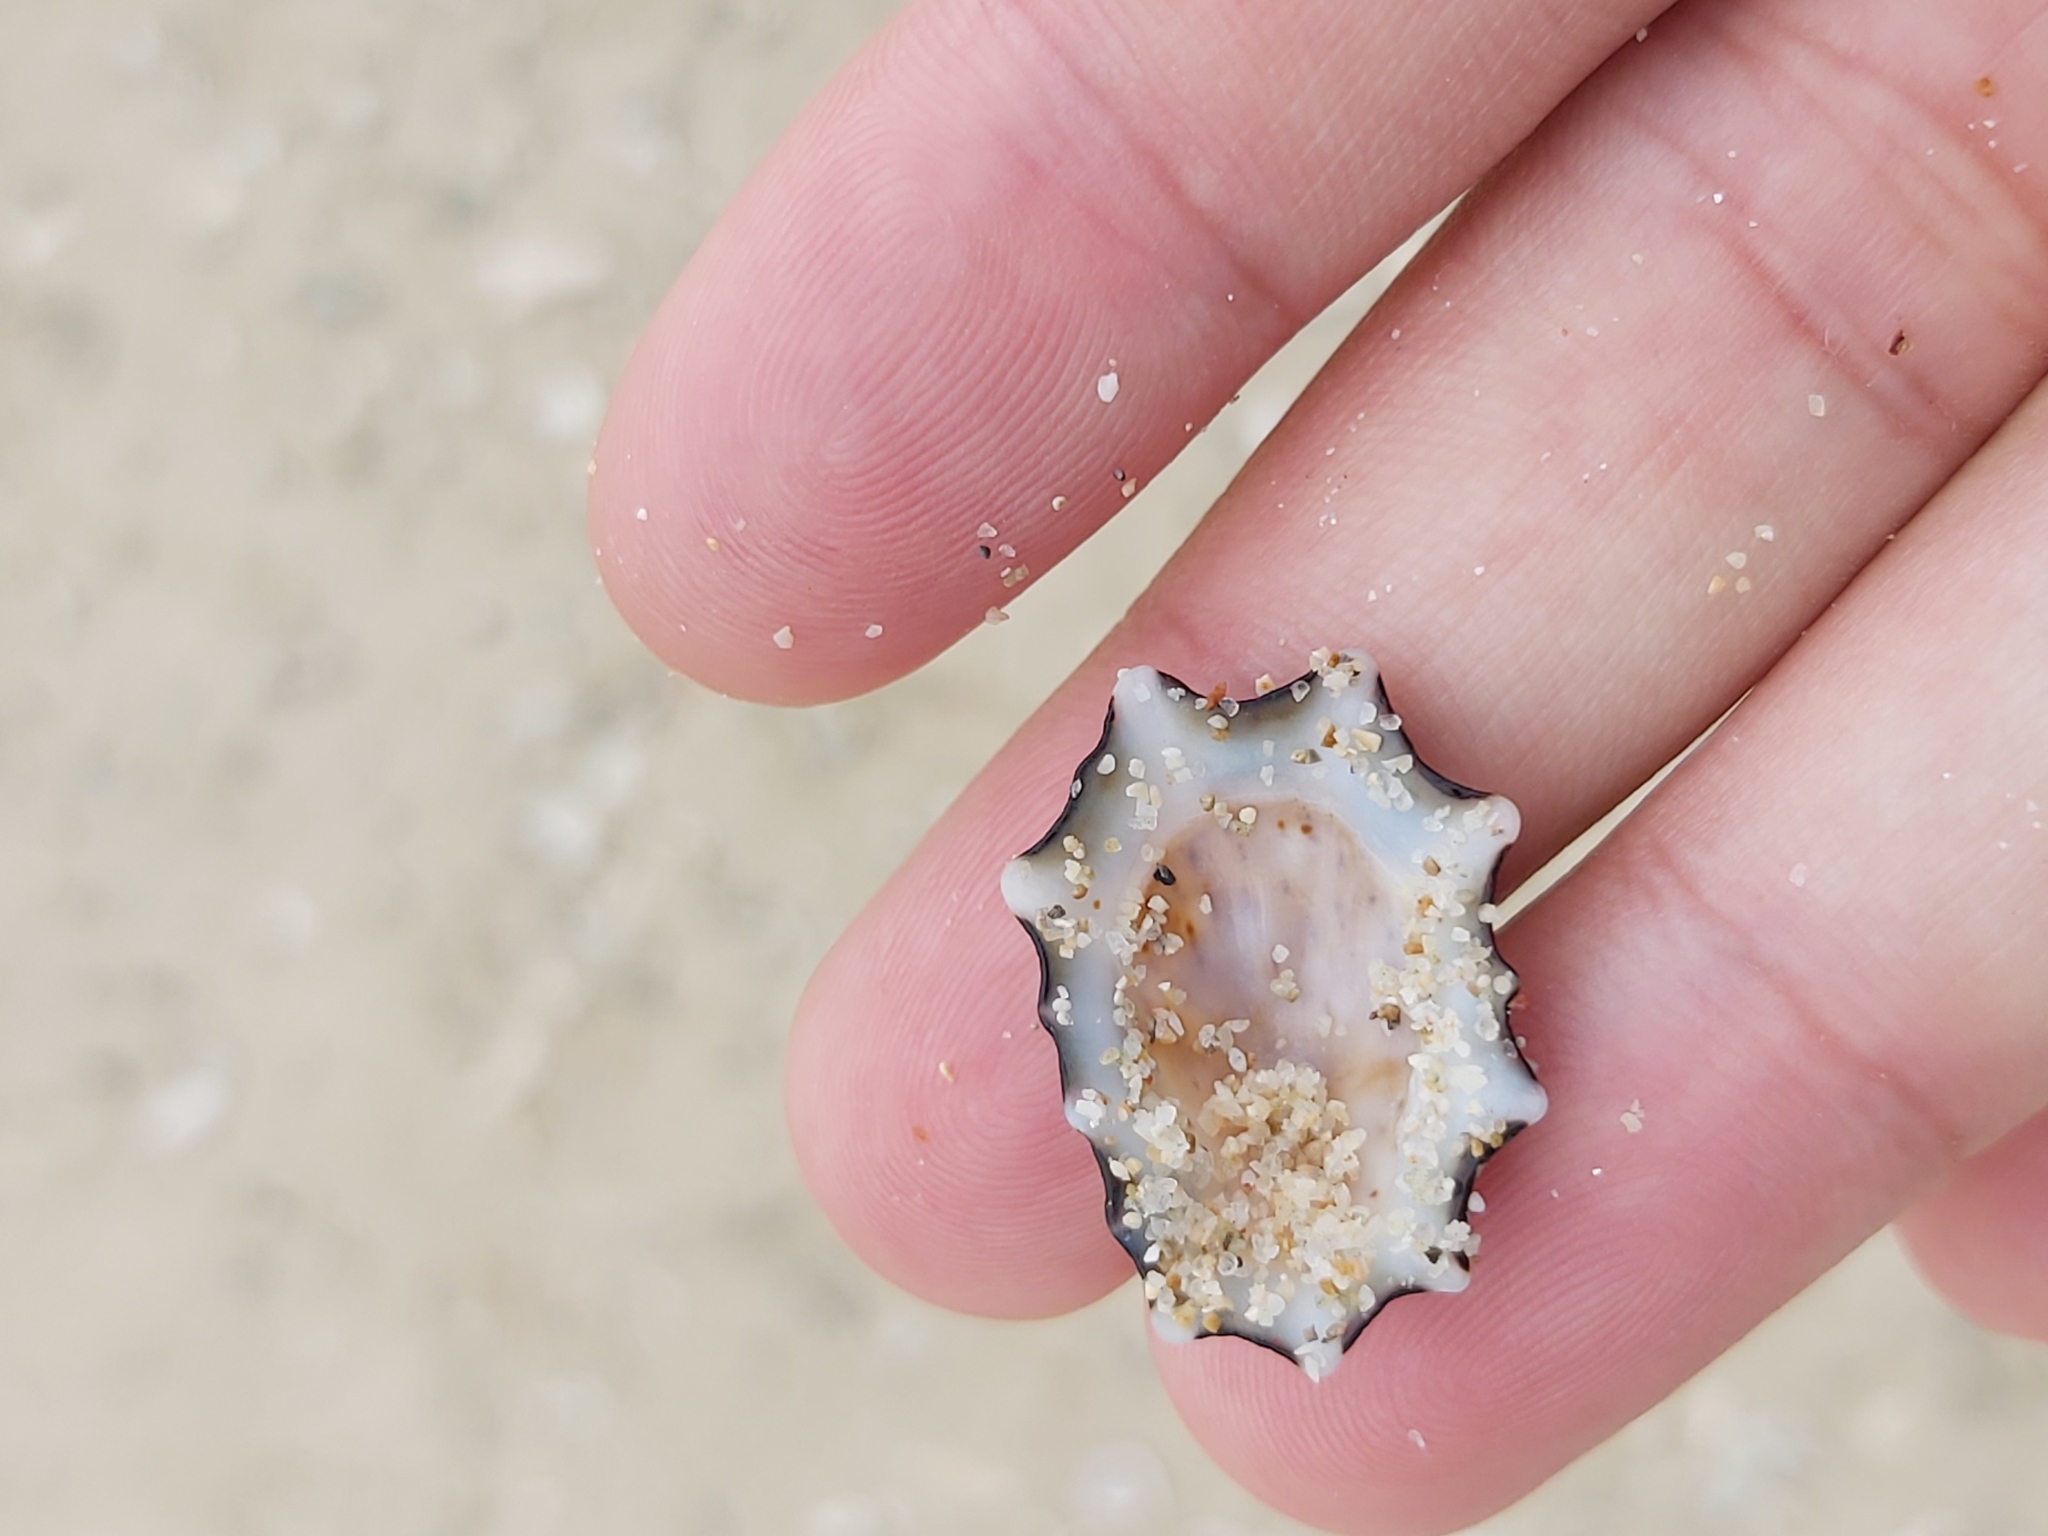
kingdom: Animalia
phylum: Mollusca
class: Gastropoda
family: Lottiidae
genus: Patelloida
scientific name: Patelloida saccharina
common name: Pacific sugar limpet
